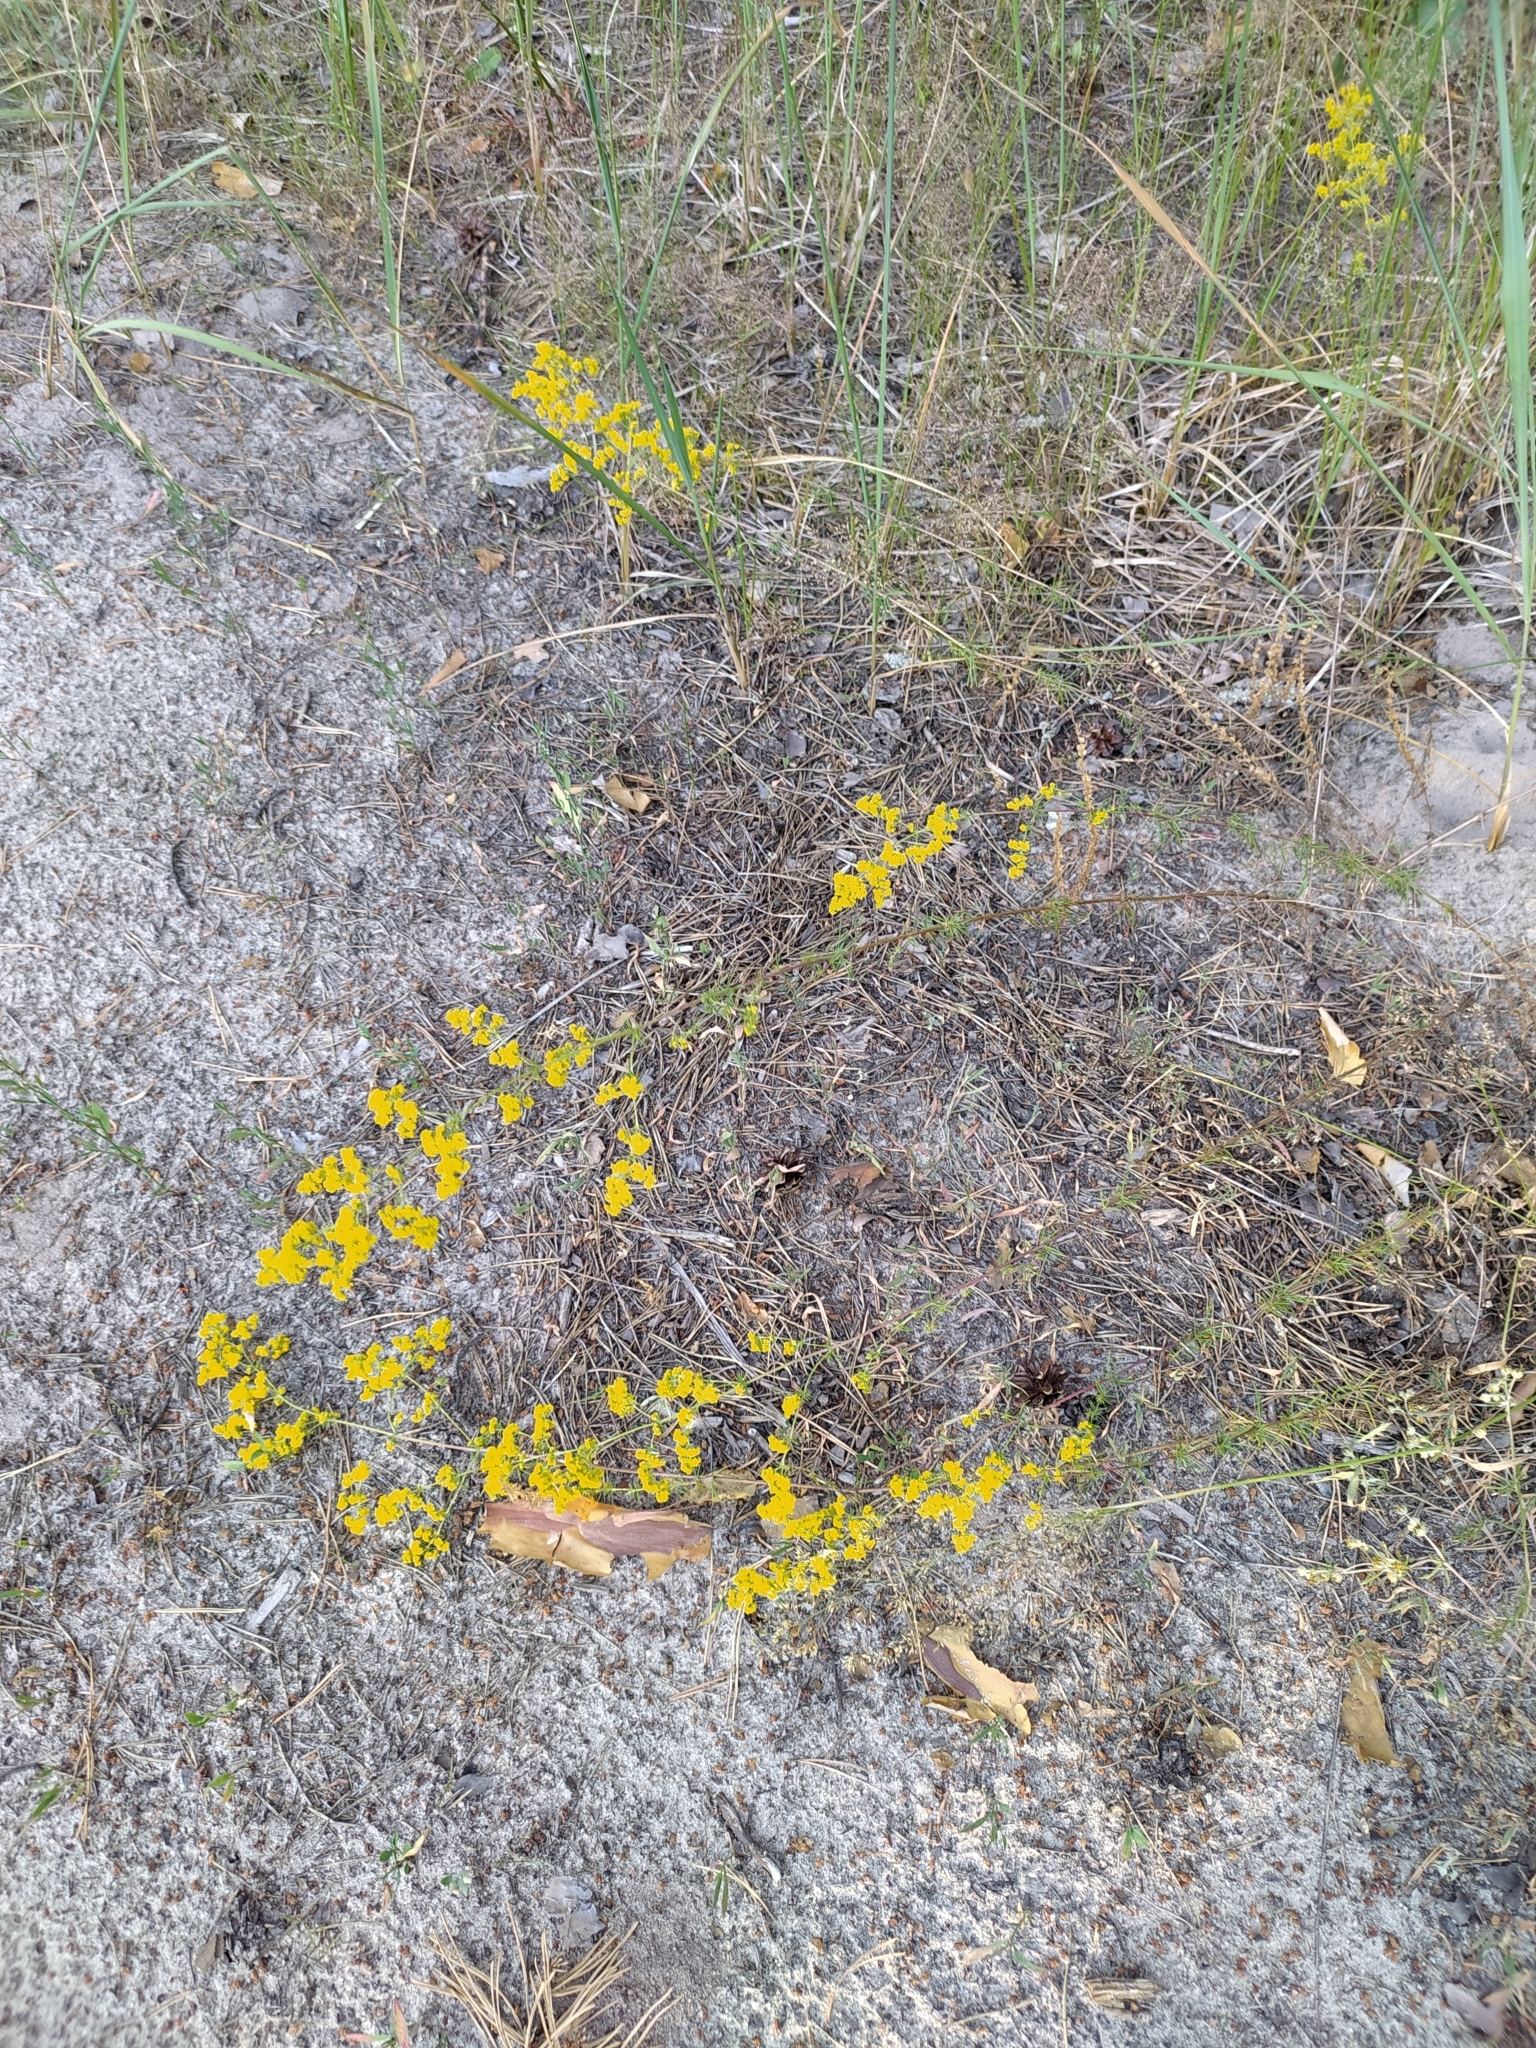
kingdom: Plantae
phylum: Tracheophyta
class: Magnoliopsida
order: Gentianales
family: Rubiaceae
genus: Galium
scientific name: Galium verum
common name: Lady's bedstraw
